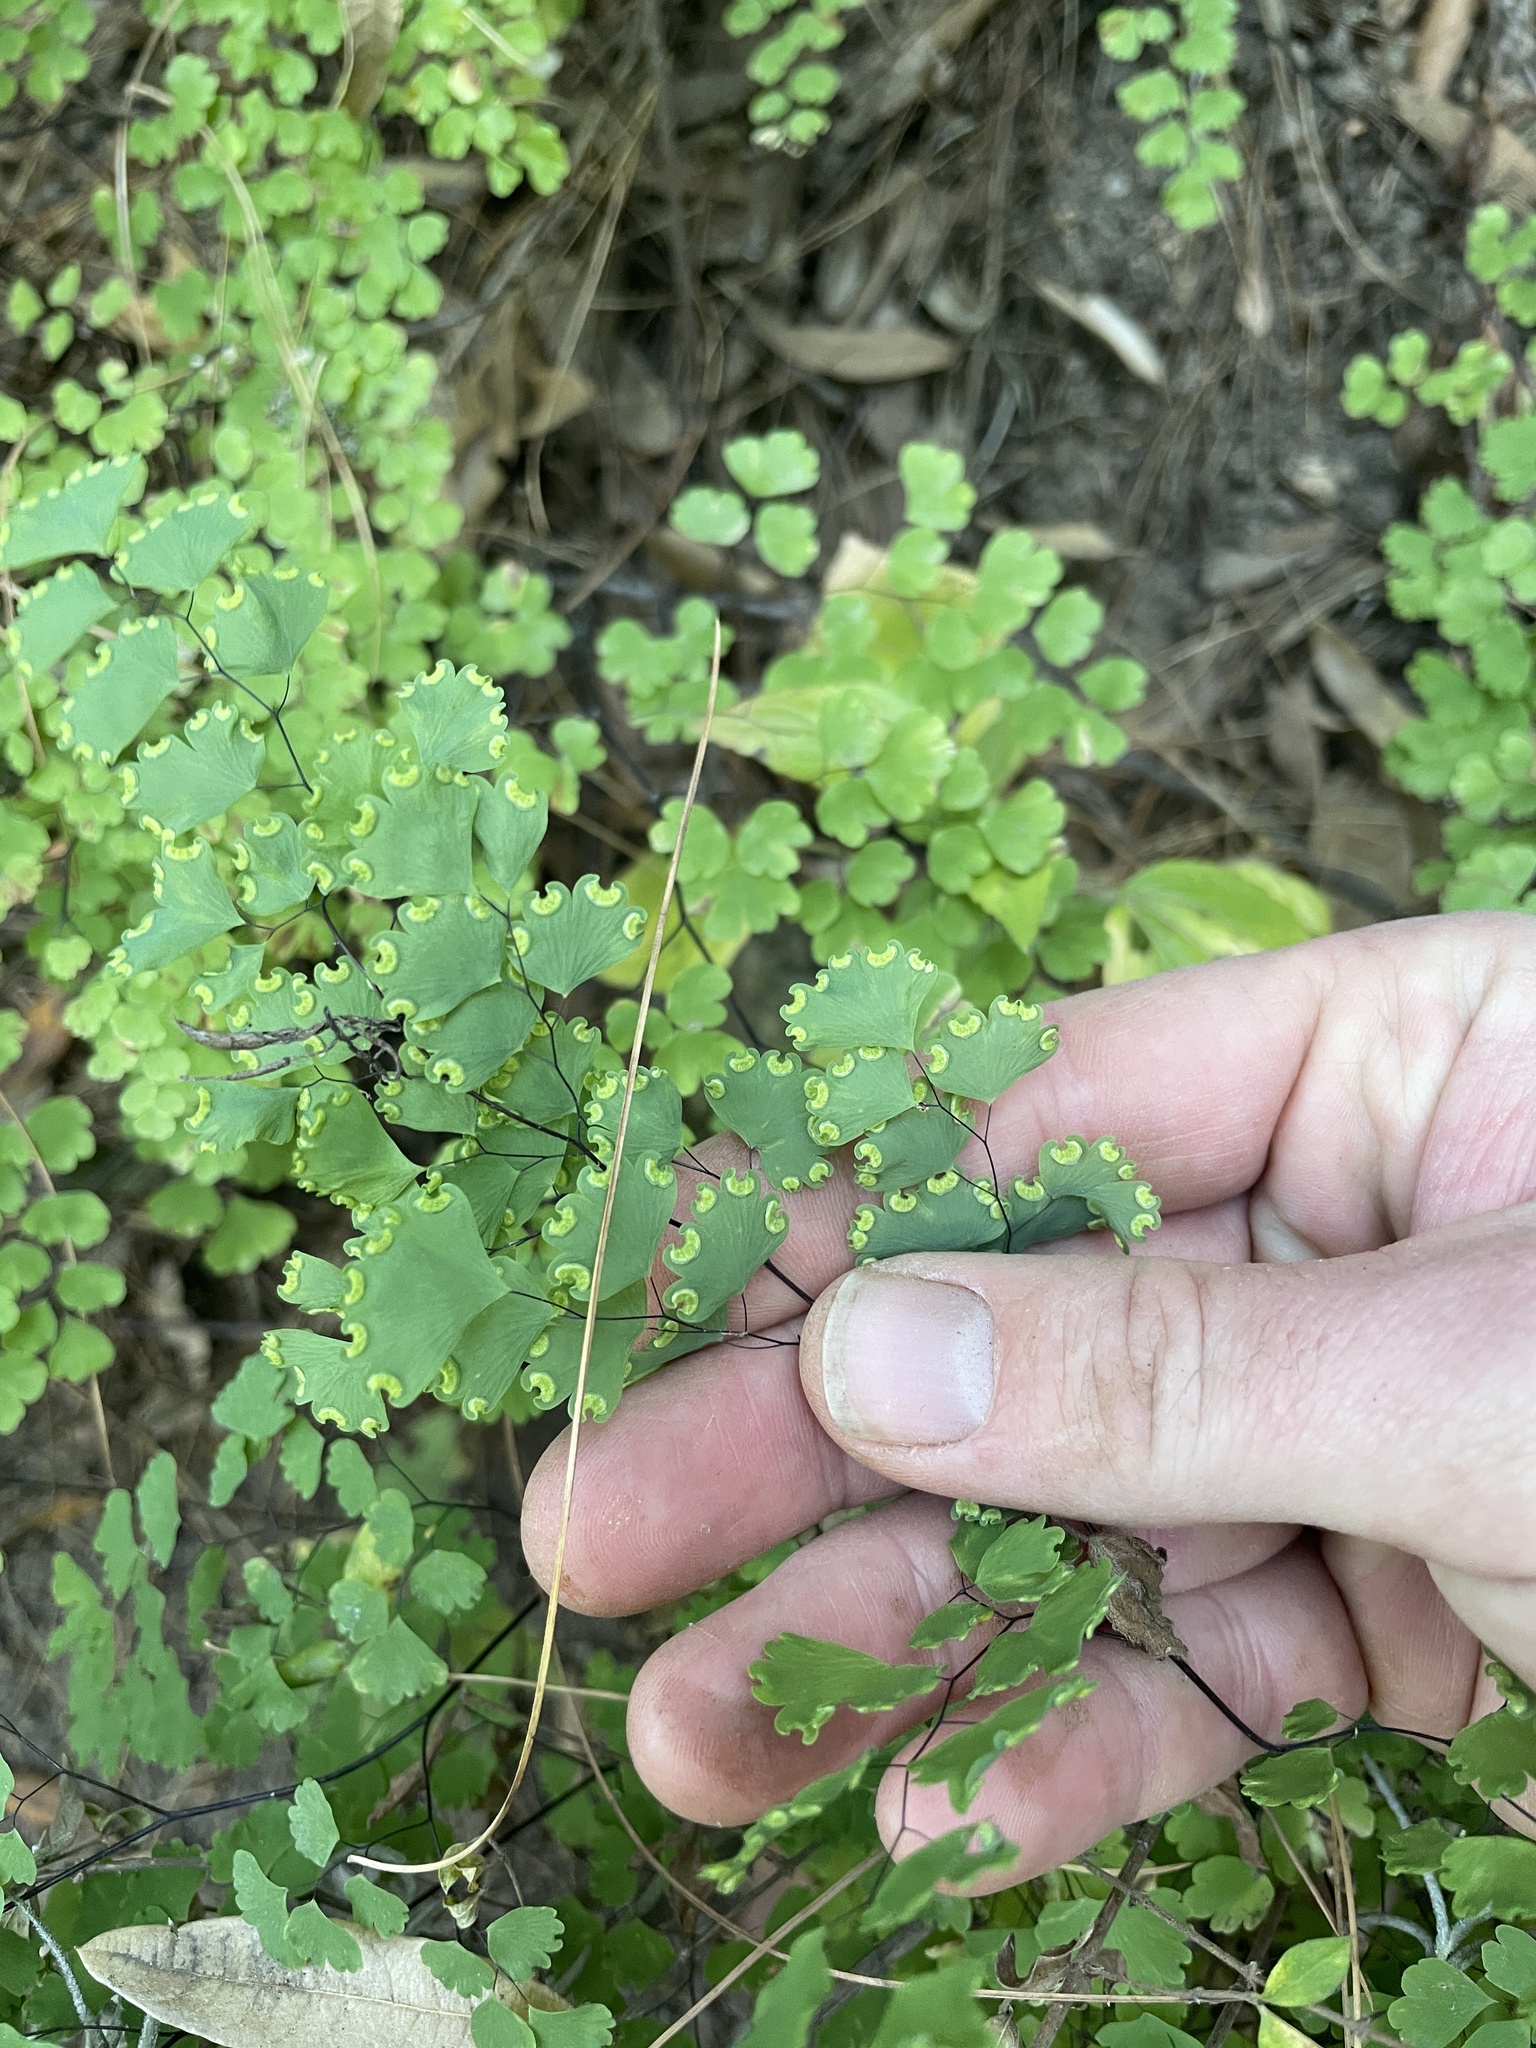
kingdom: Plantae
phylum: Tracheophyta
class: Polypodiopsida
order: Polypodiales
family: Pteridaceae
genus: Adiantum
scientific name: Adiantum poiretii
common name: Mexican maidenhair
